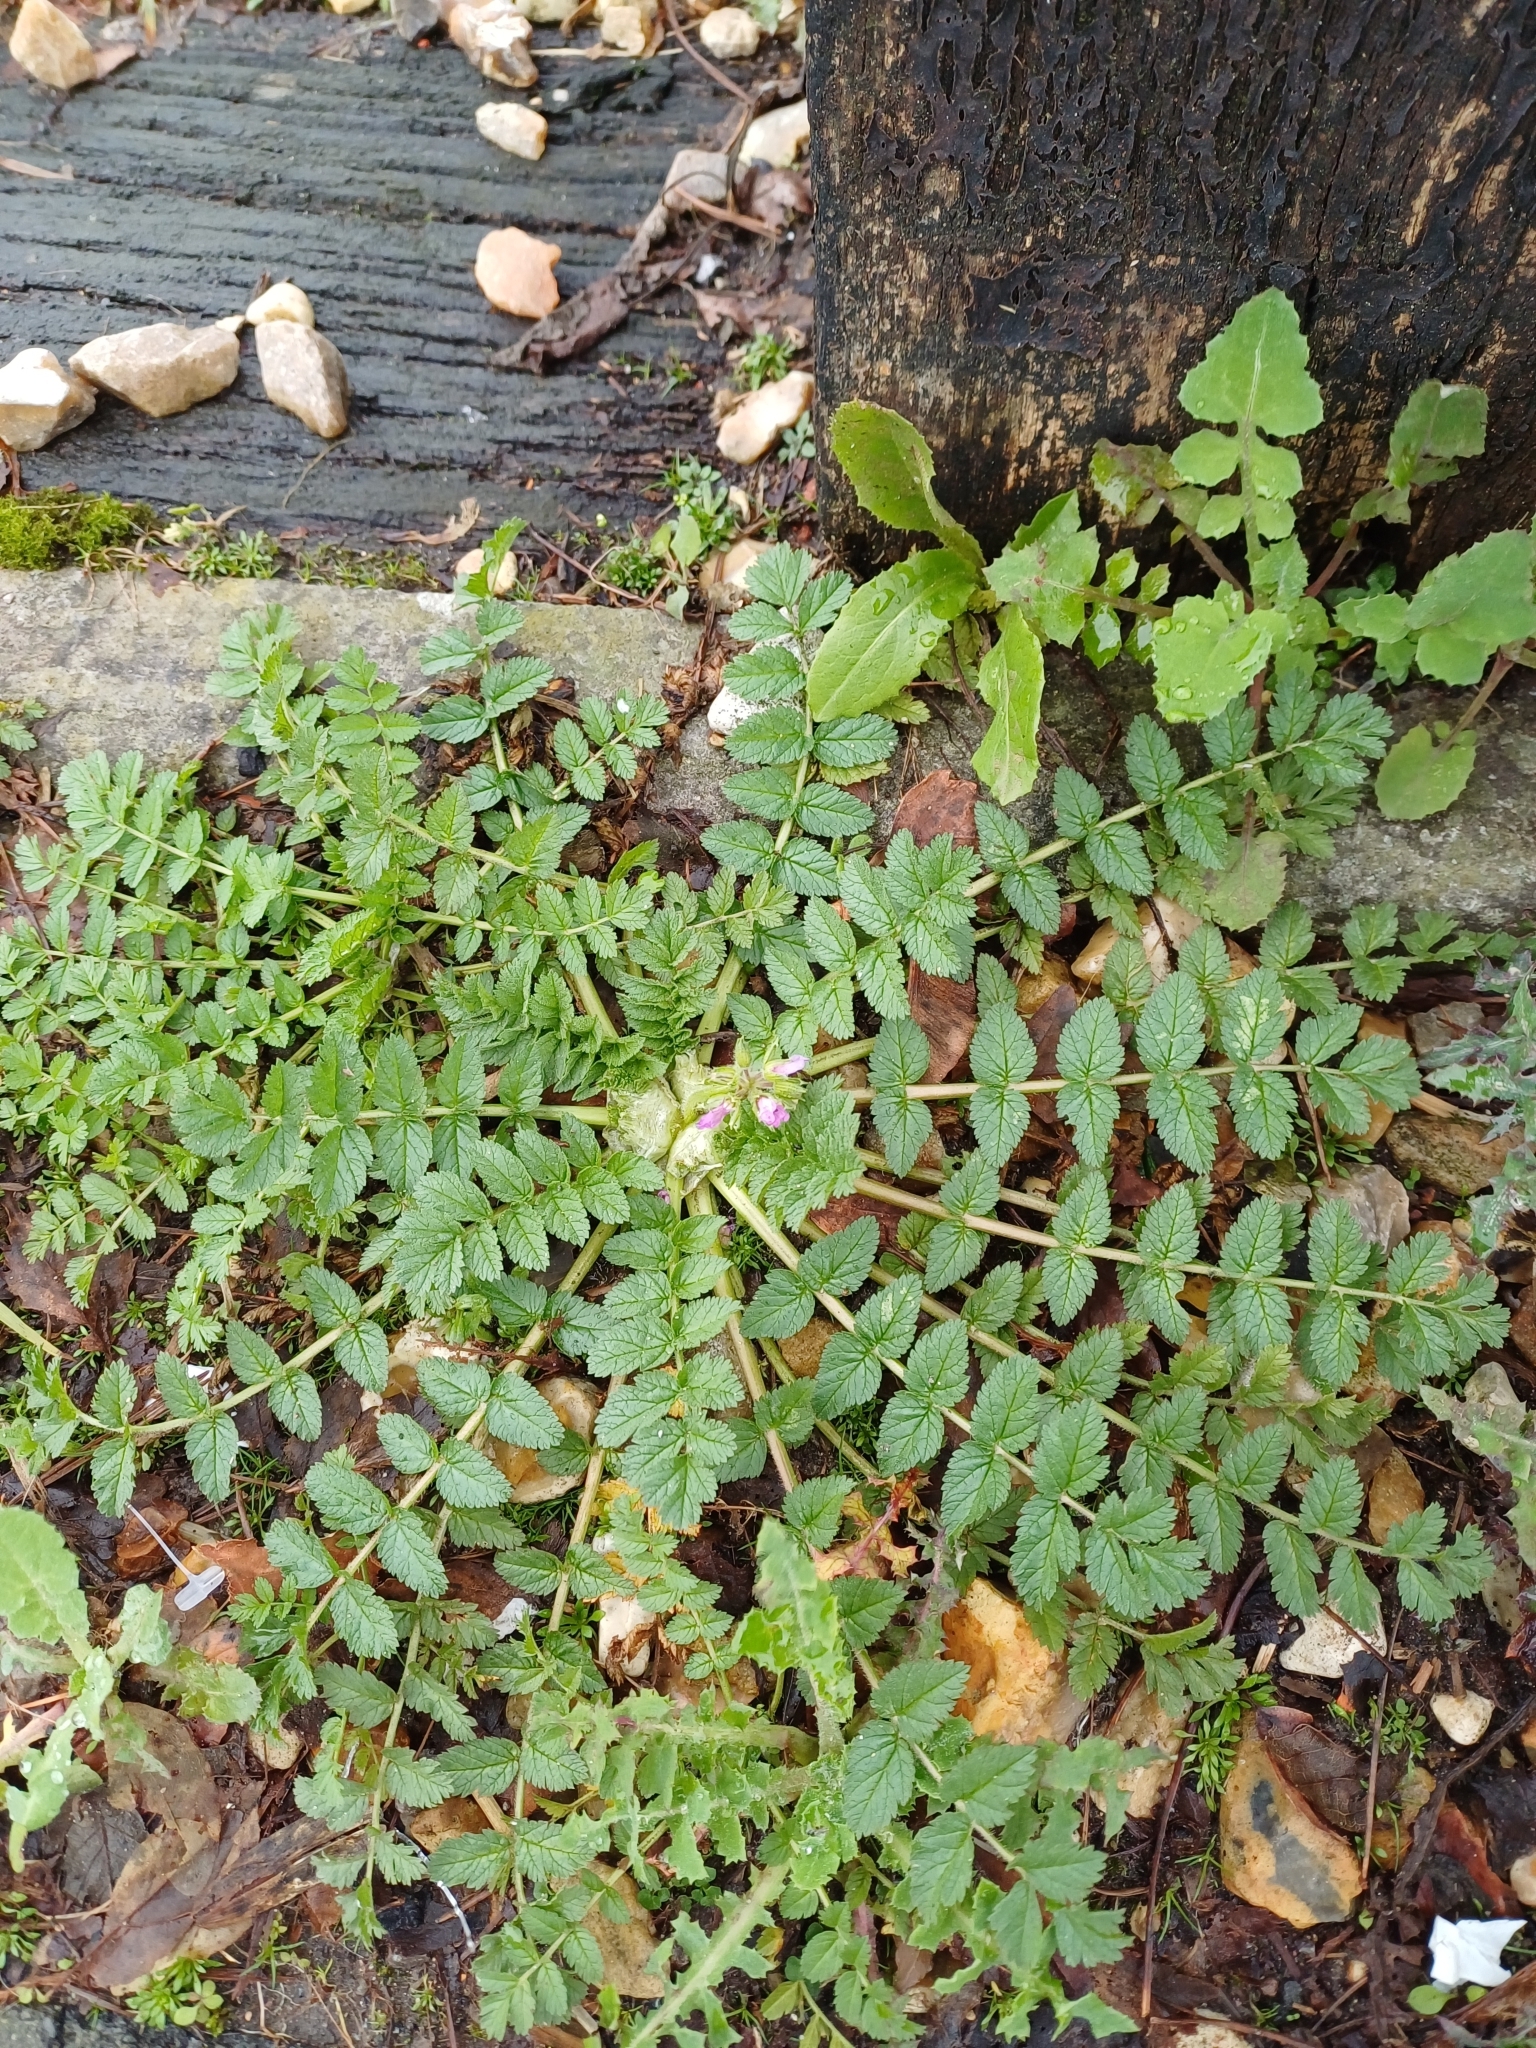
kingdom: Plantae
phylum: Tracheophyta
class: Magnoliopsida
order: Geraniales
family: Geraniaceae
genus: Erodium
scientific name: Erodium moschatum
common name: Musk stork's-bill
